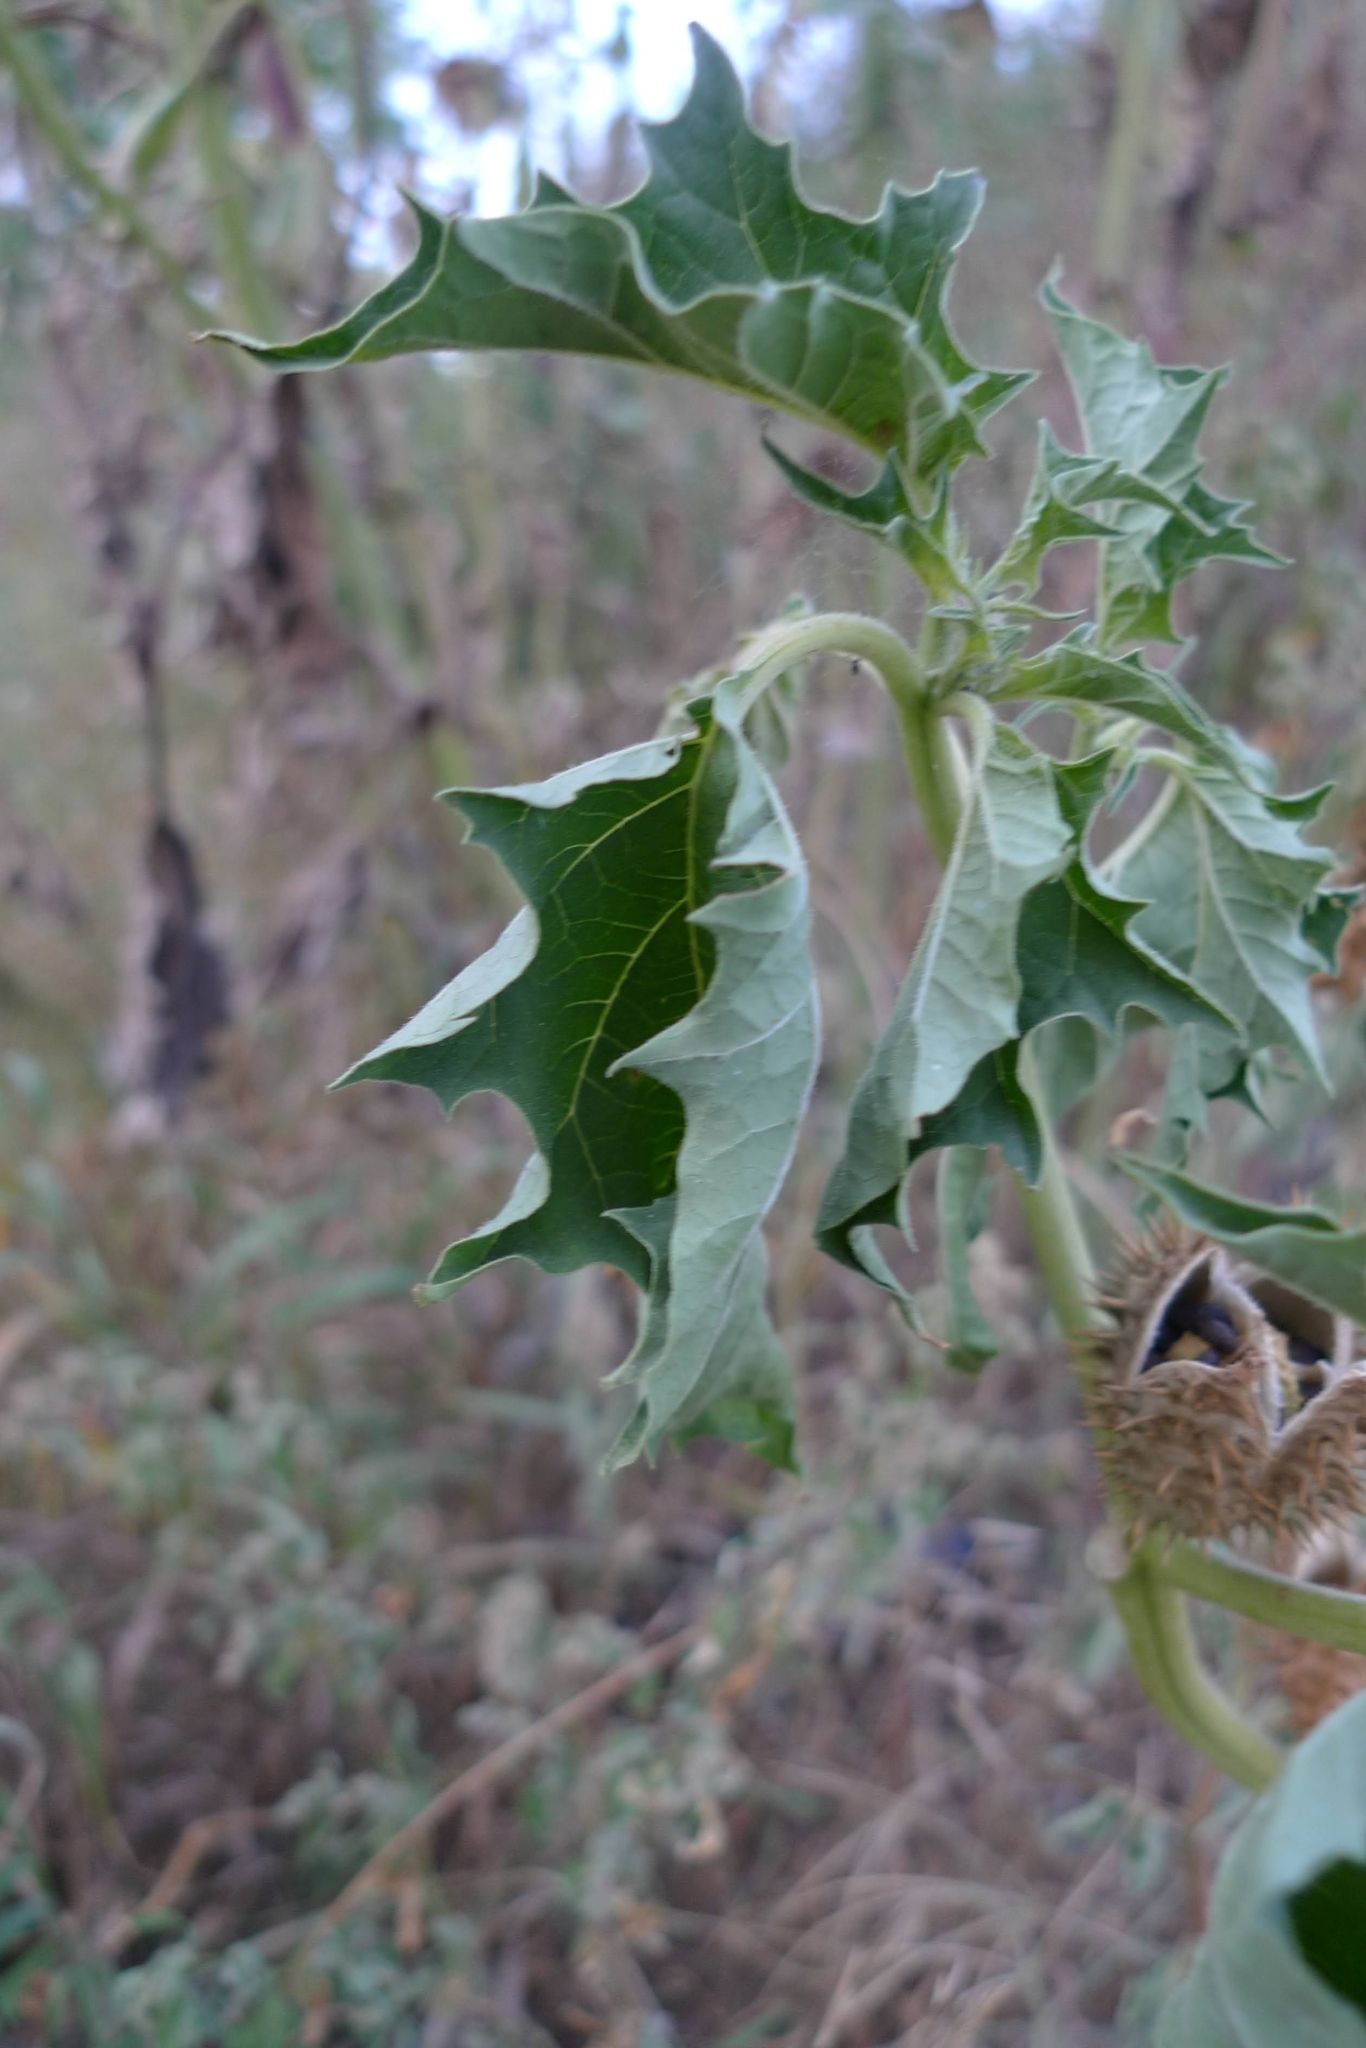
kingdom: Plantae
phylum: Tracheophyta
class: Magnoliopsida
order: Solanales
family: Solanaceae
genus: Datura
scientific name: Datura stramonium
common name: Thorn-apple
